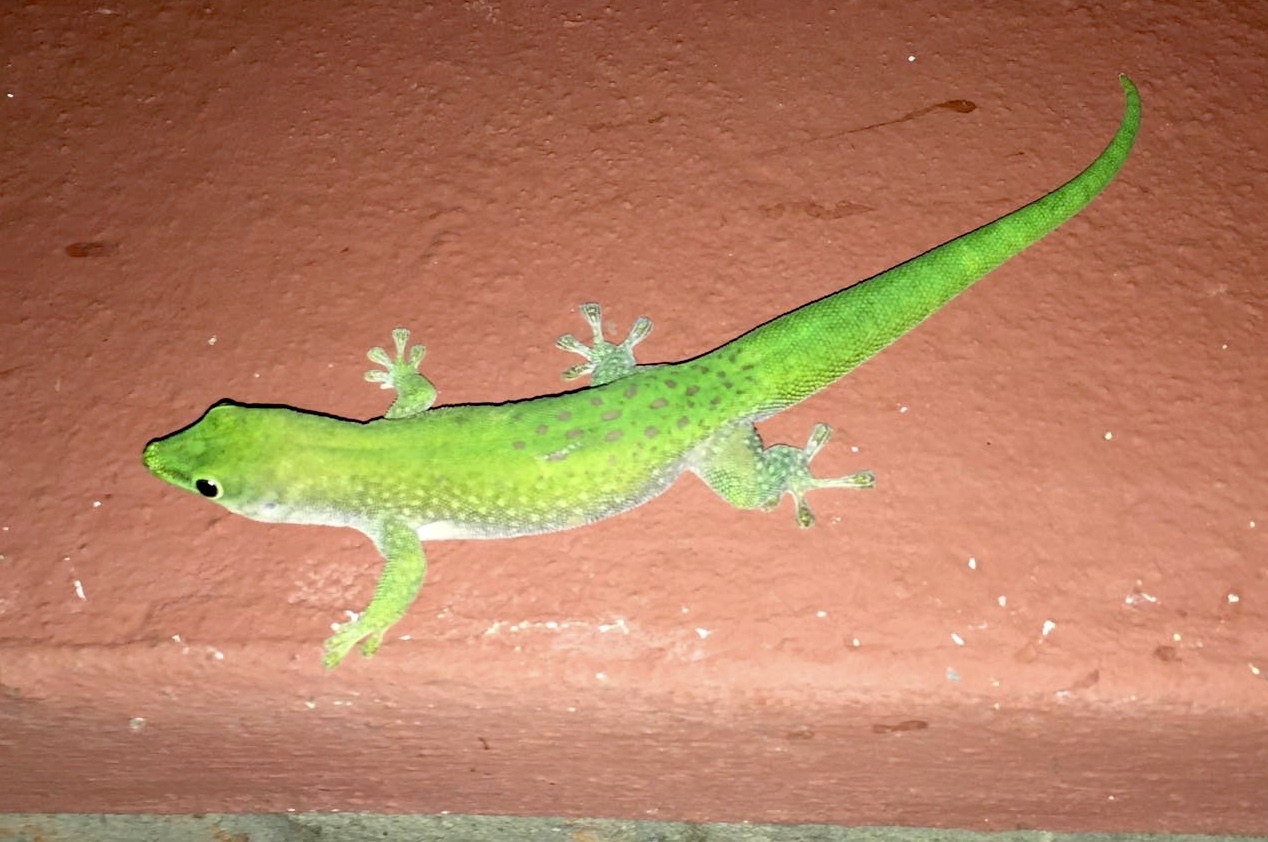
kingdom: Animalia
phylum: Chordata
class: Squamata
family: Gekkonidae
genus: Phelsuma
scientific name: Phelsuma kochi
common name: Madagascar day gecko
